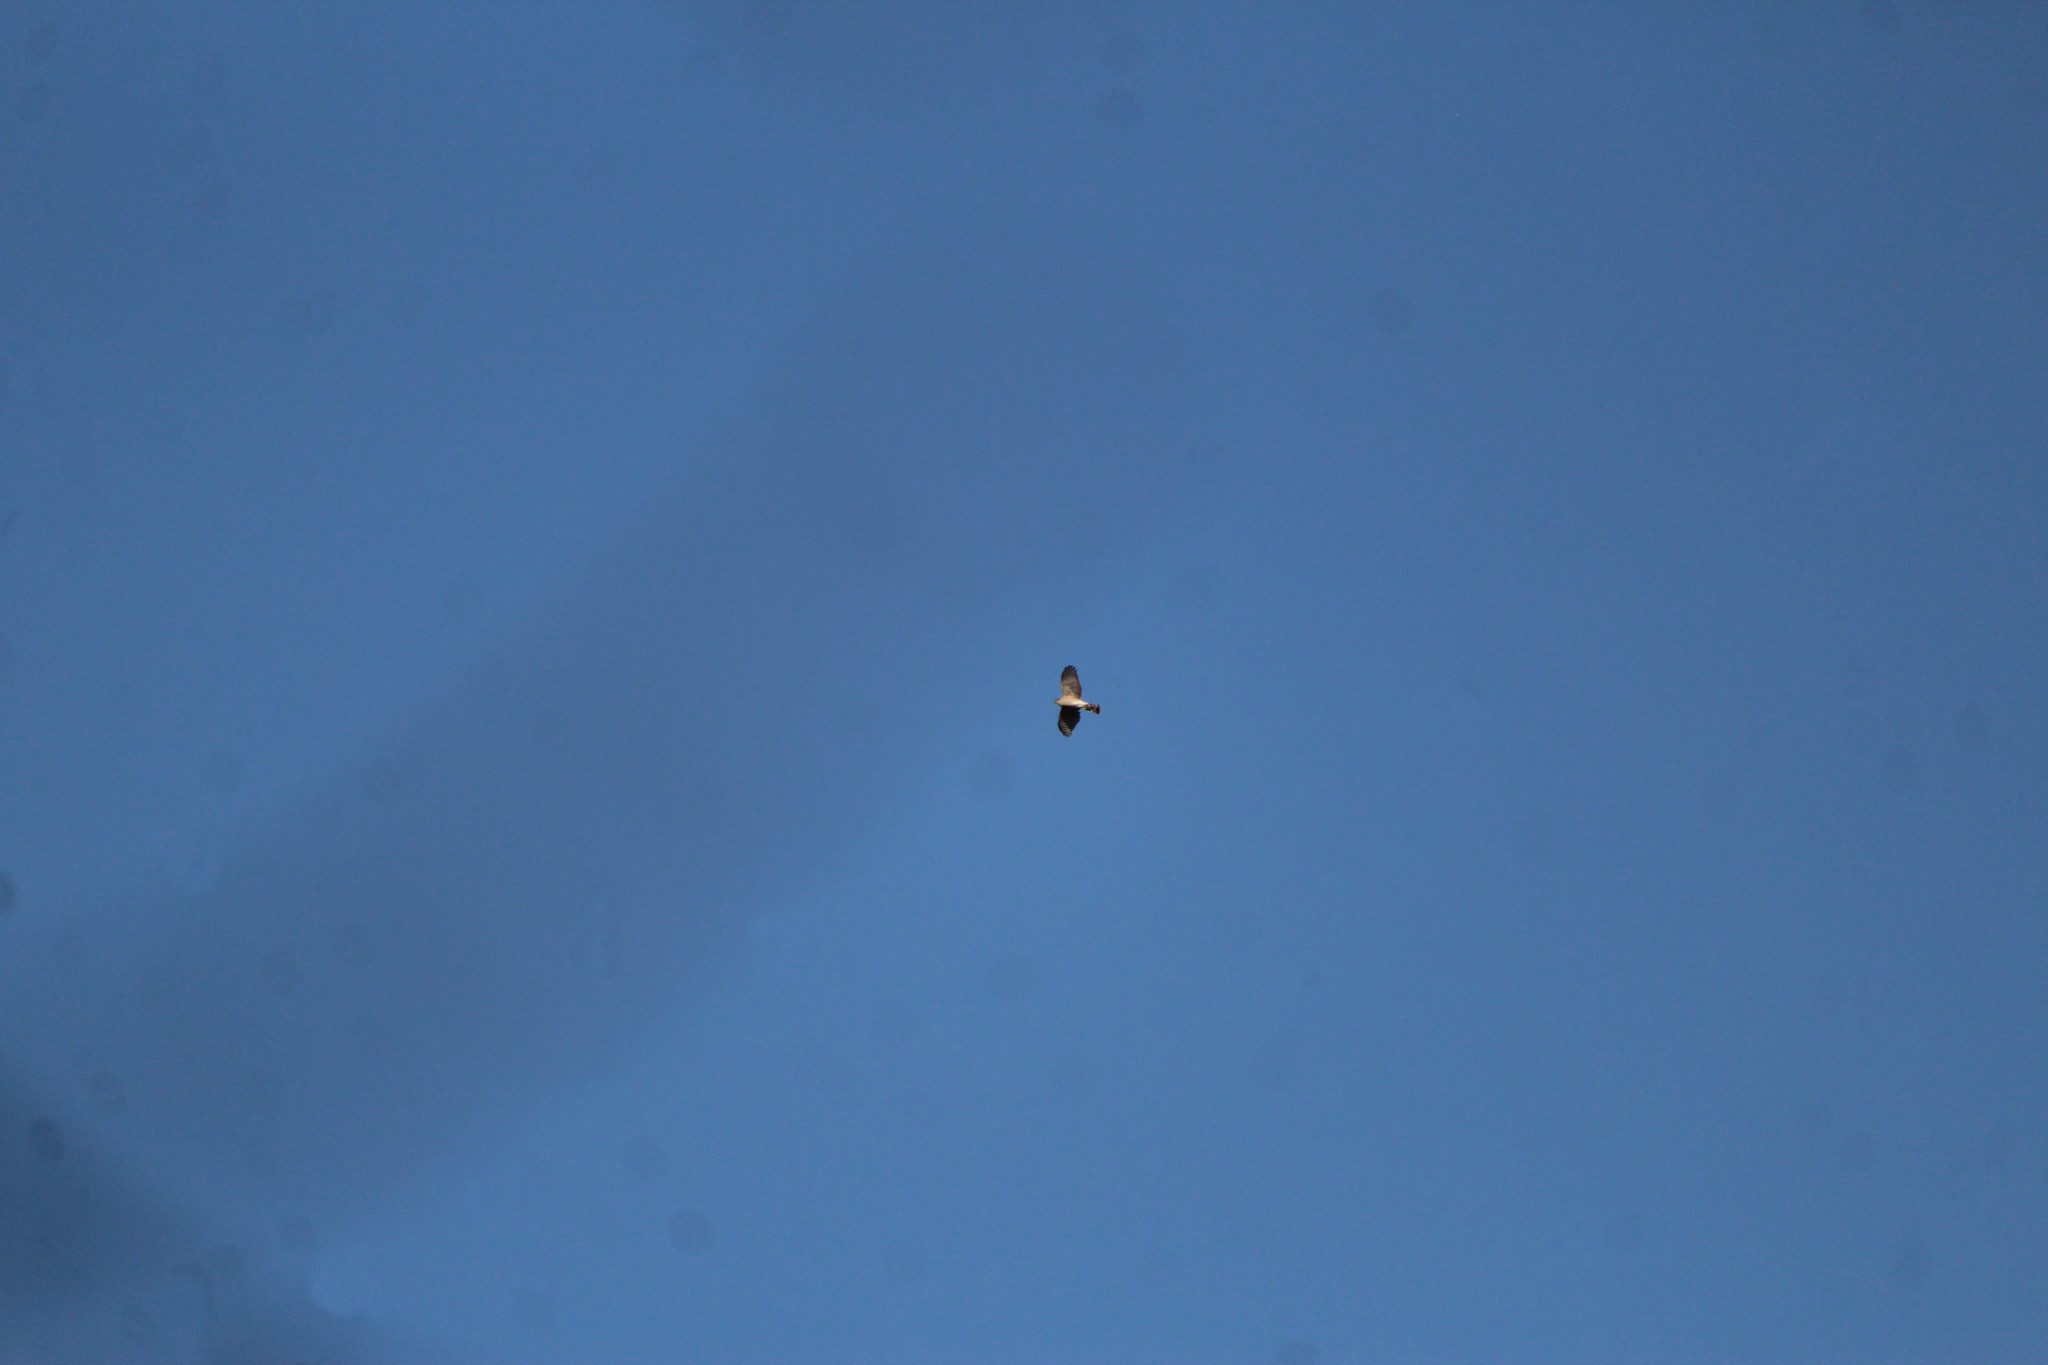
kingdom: Animalia
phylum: Chordata
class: Aves
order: Accipitriformes
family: Accipitridae
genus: Accipiter
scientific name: Accipiter striatus
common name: Sharp-shinned hawk
